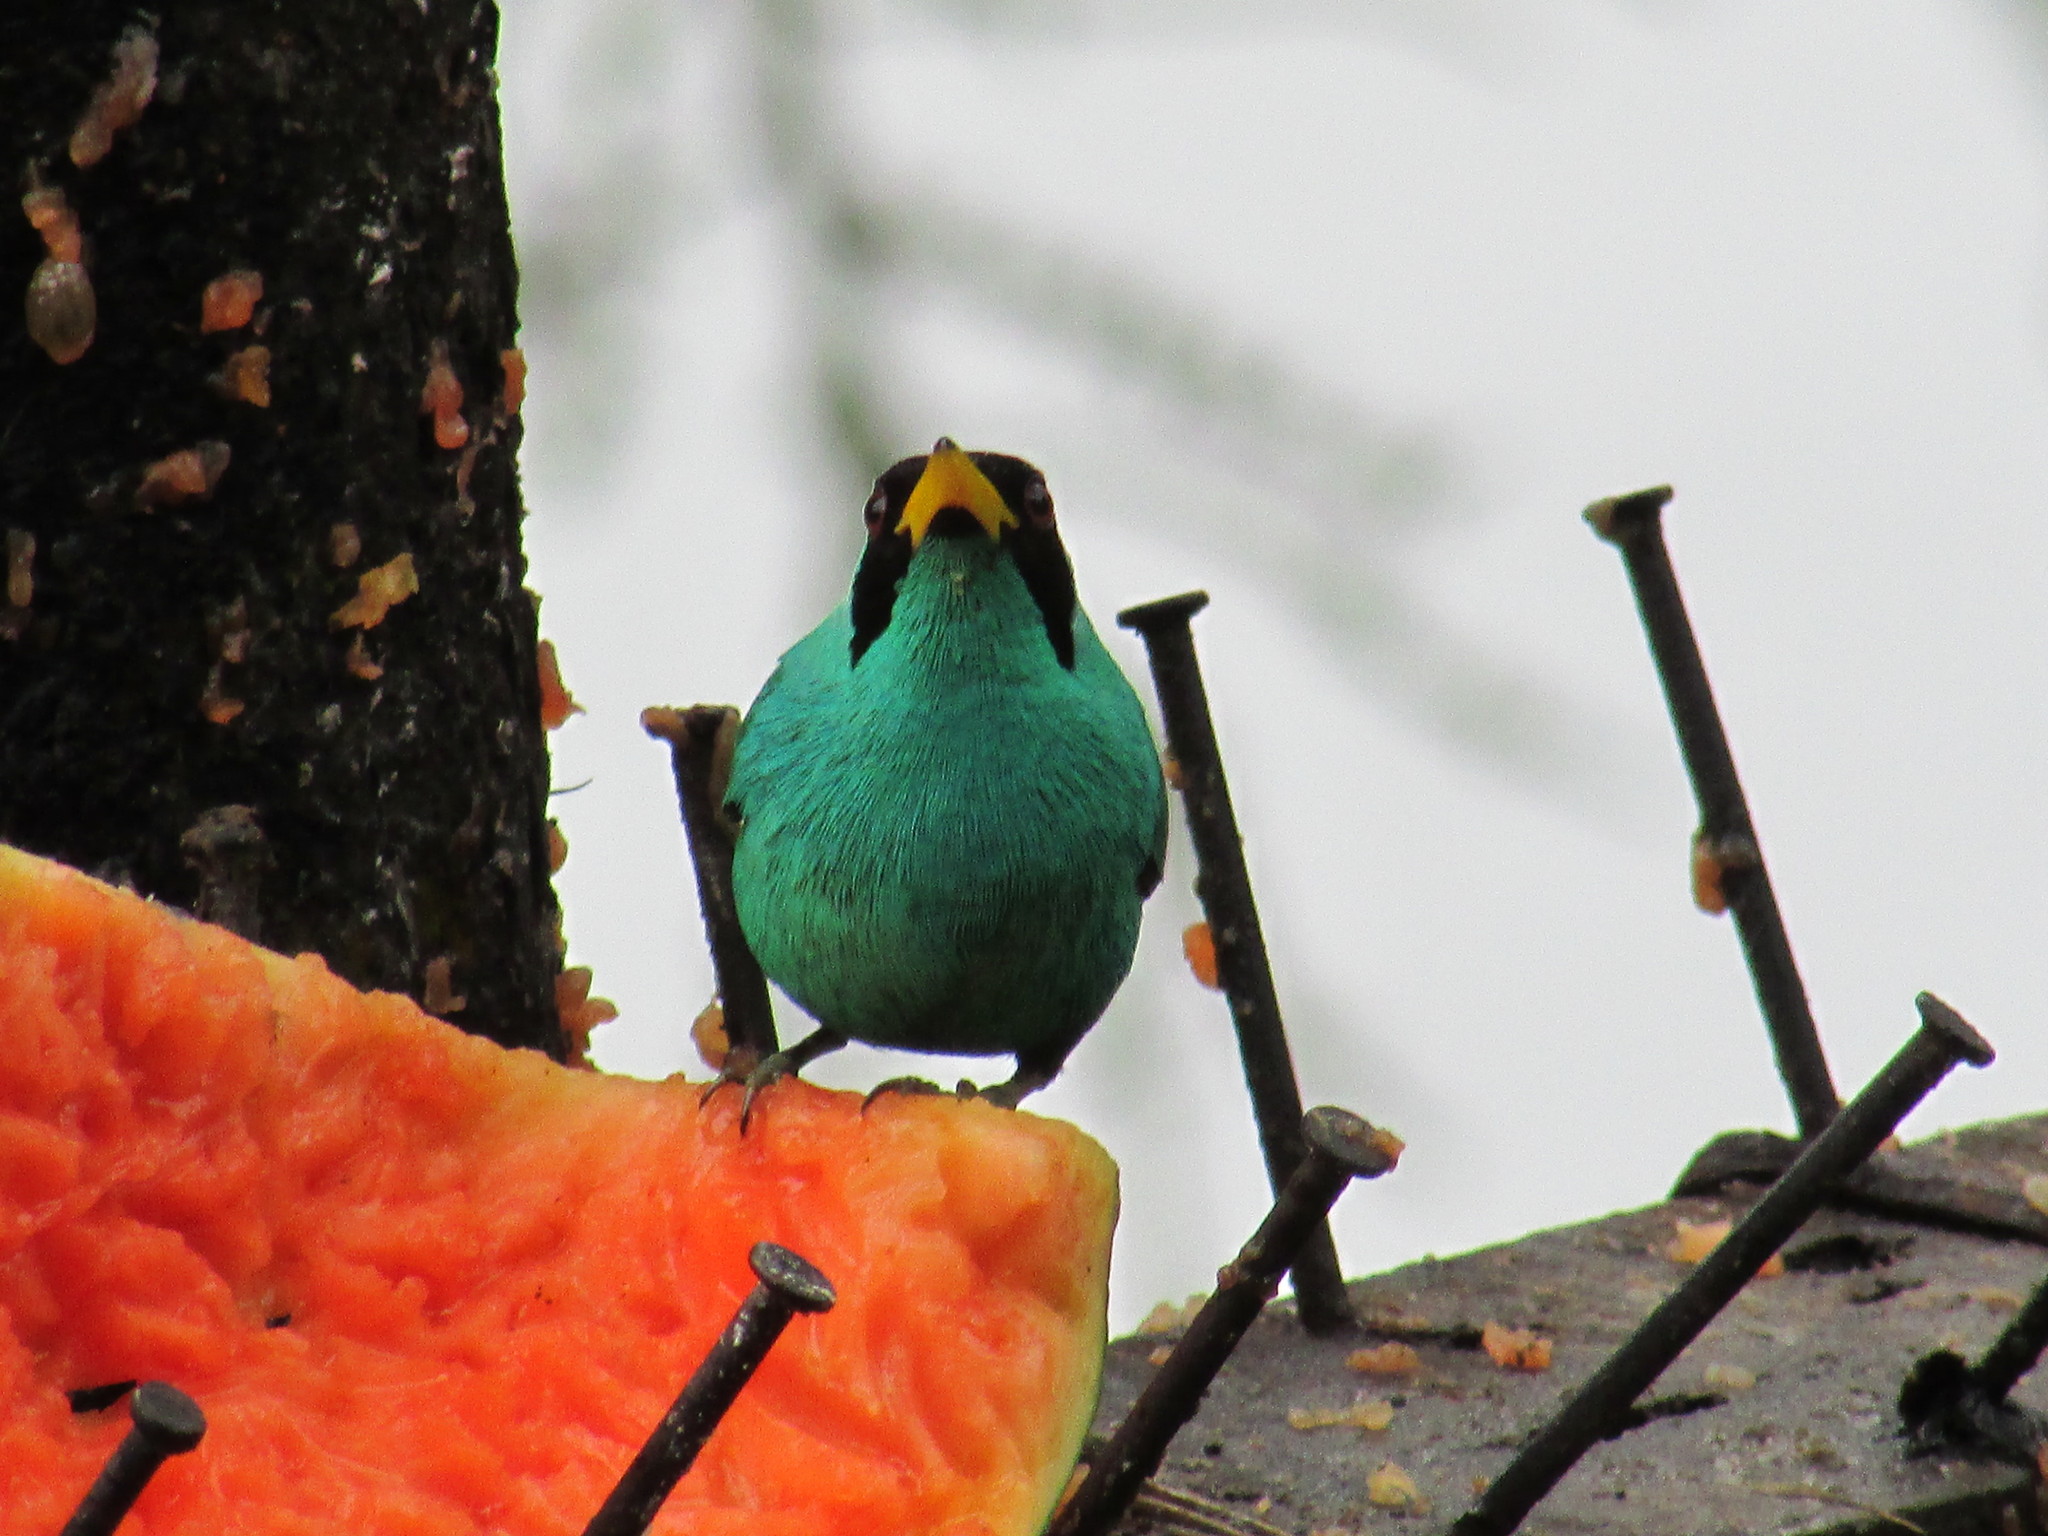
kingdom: Animalia
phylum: Chordata
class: Aves
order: Passeriformes
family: Thraupidae
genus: Chlorophanes
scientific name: Chlorophanes spiza
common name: Green honeycreeper
